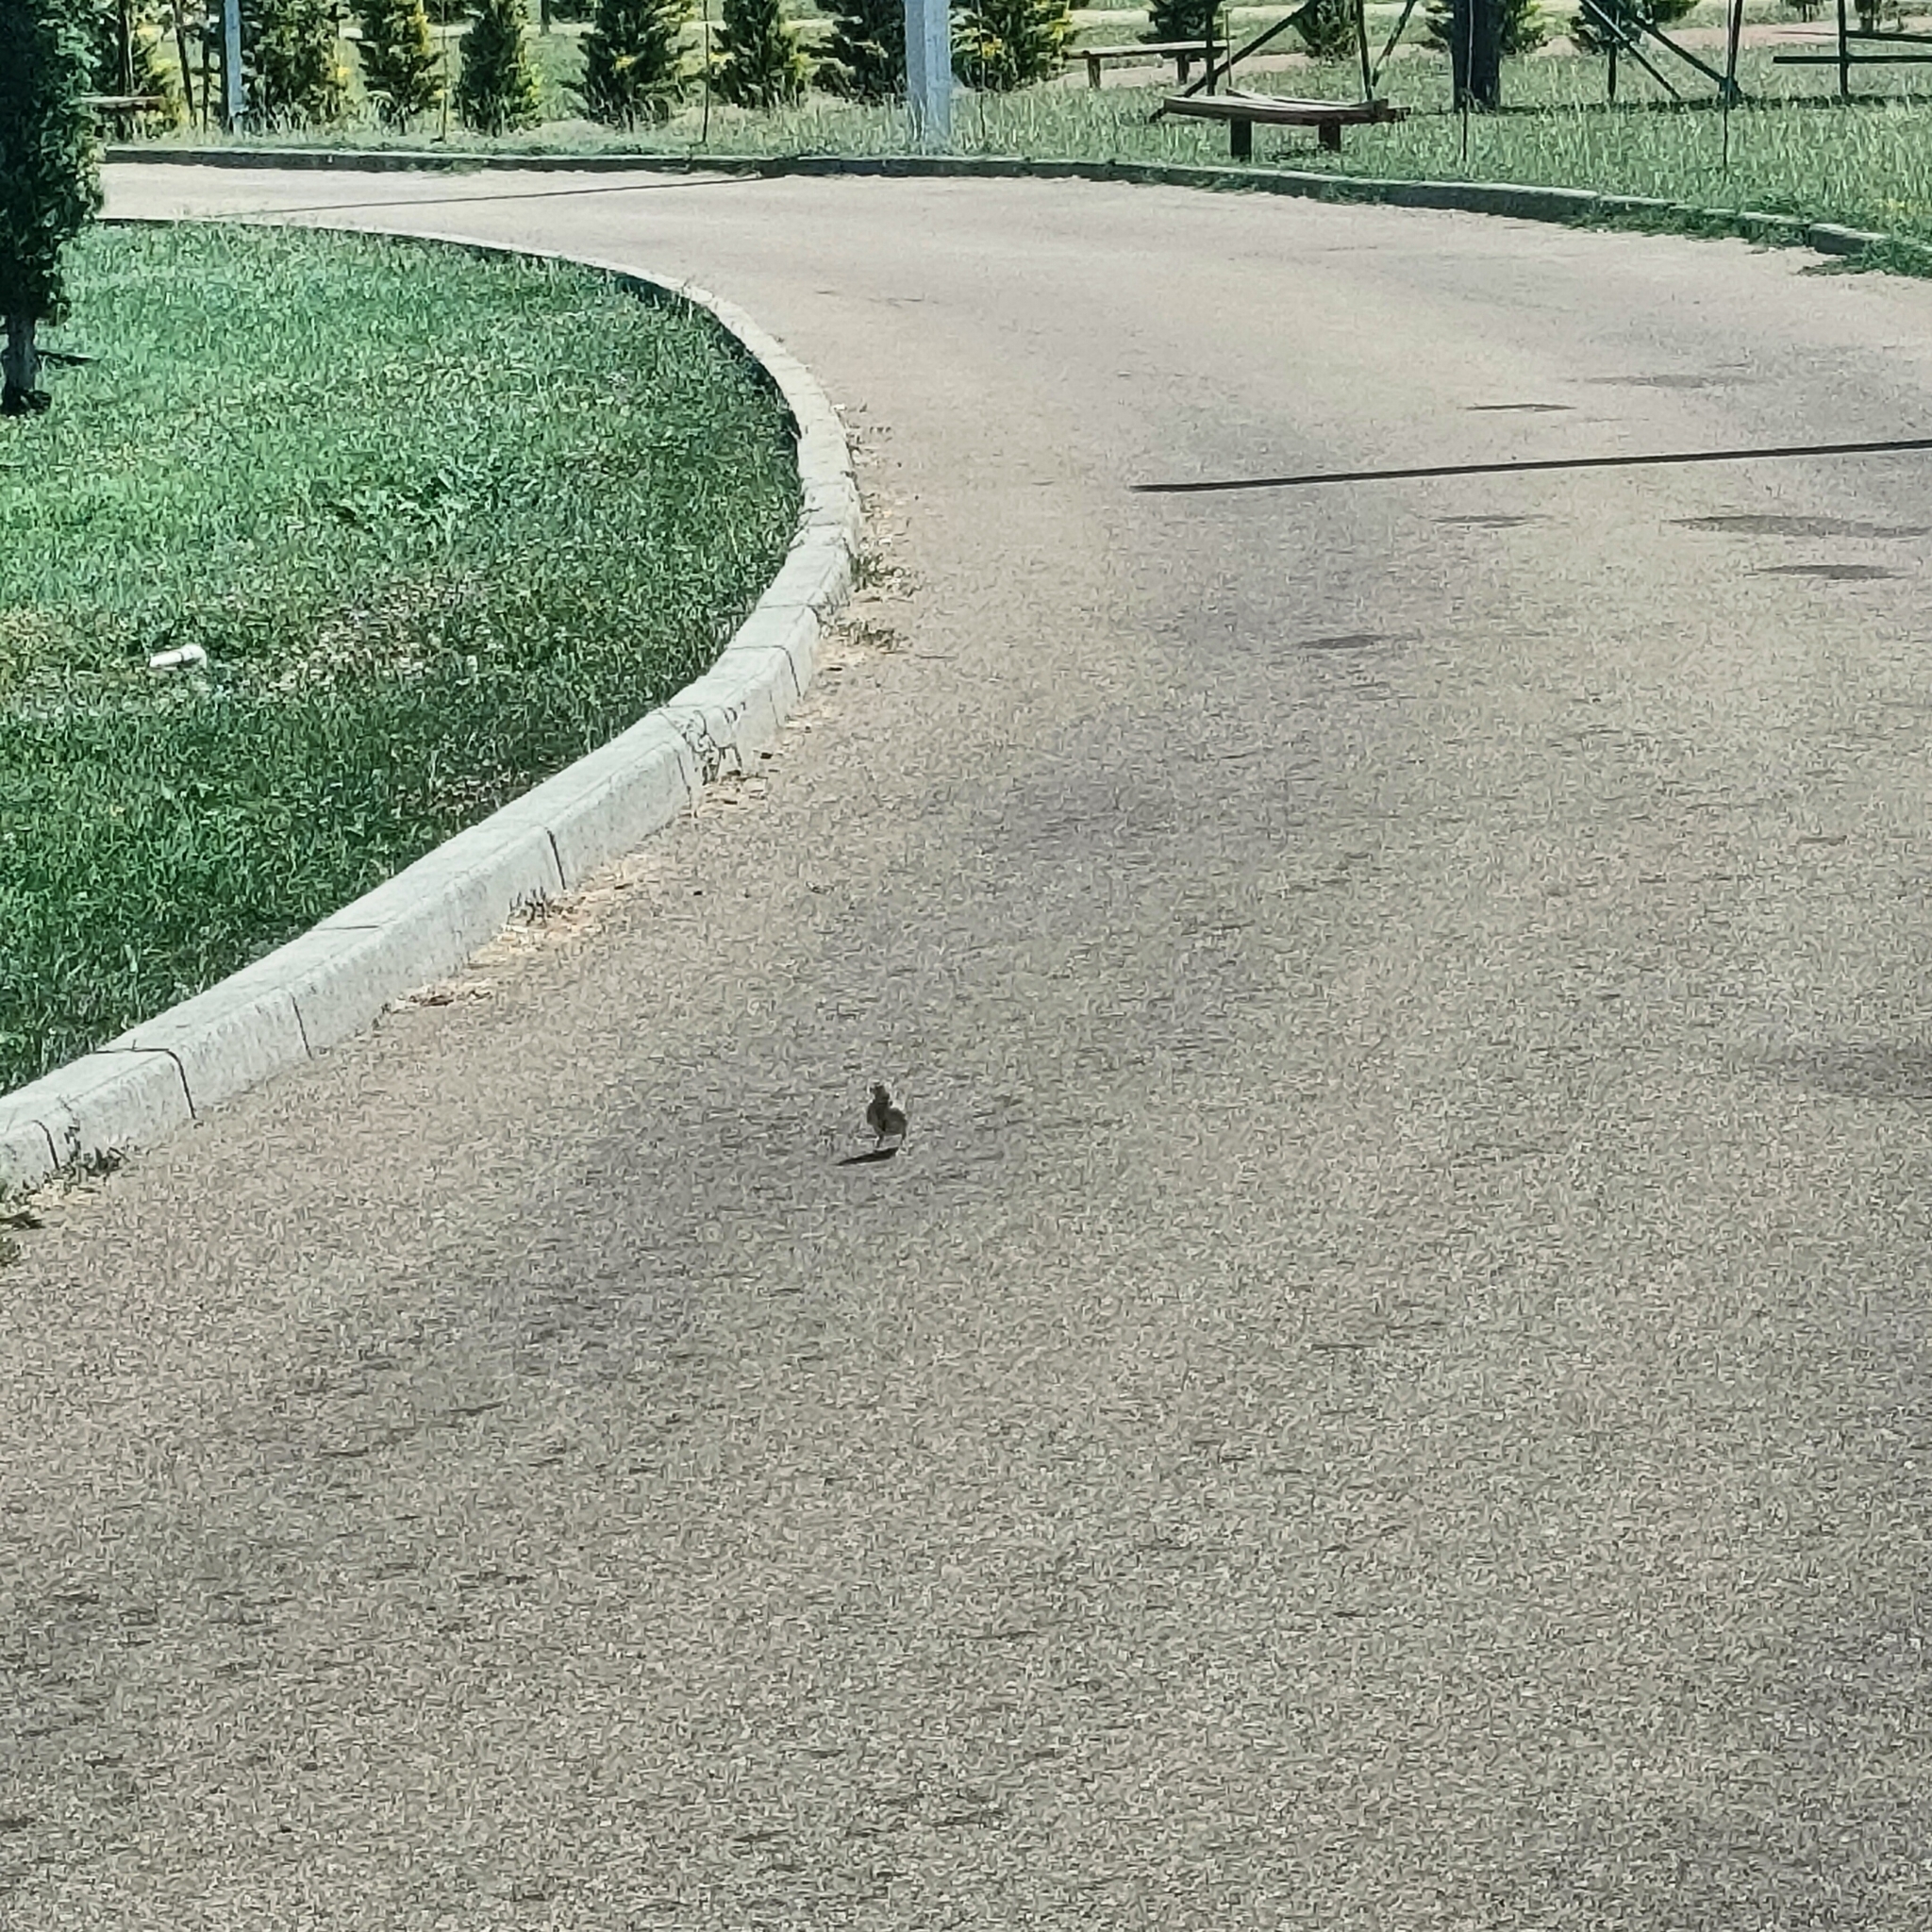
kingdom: Animalia
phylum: Chordata
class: Aves
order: Passeriformes
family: Motacillidae
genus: Motacilla
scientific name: Motacilla alba
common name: White wagtail
